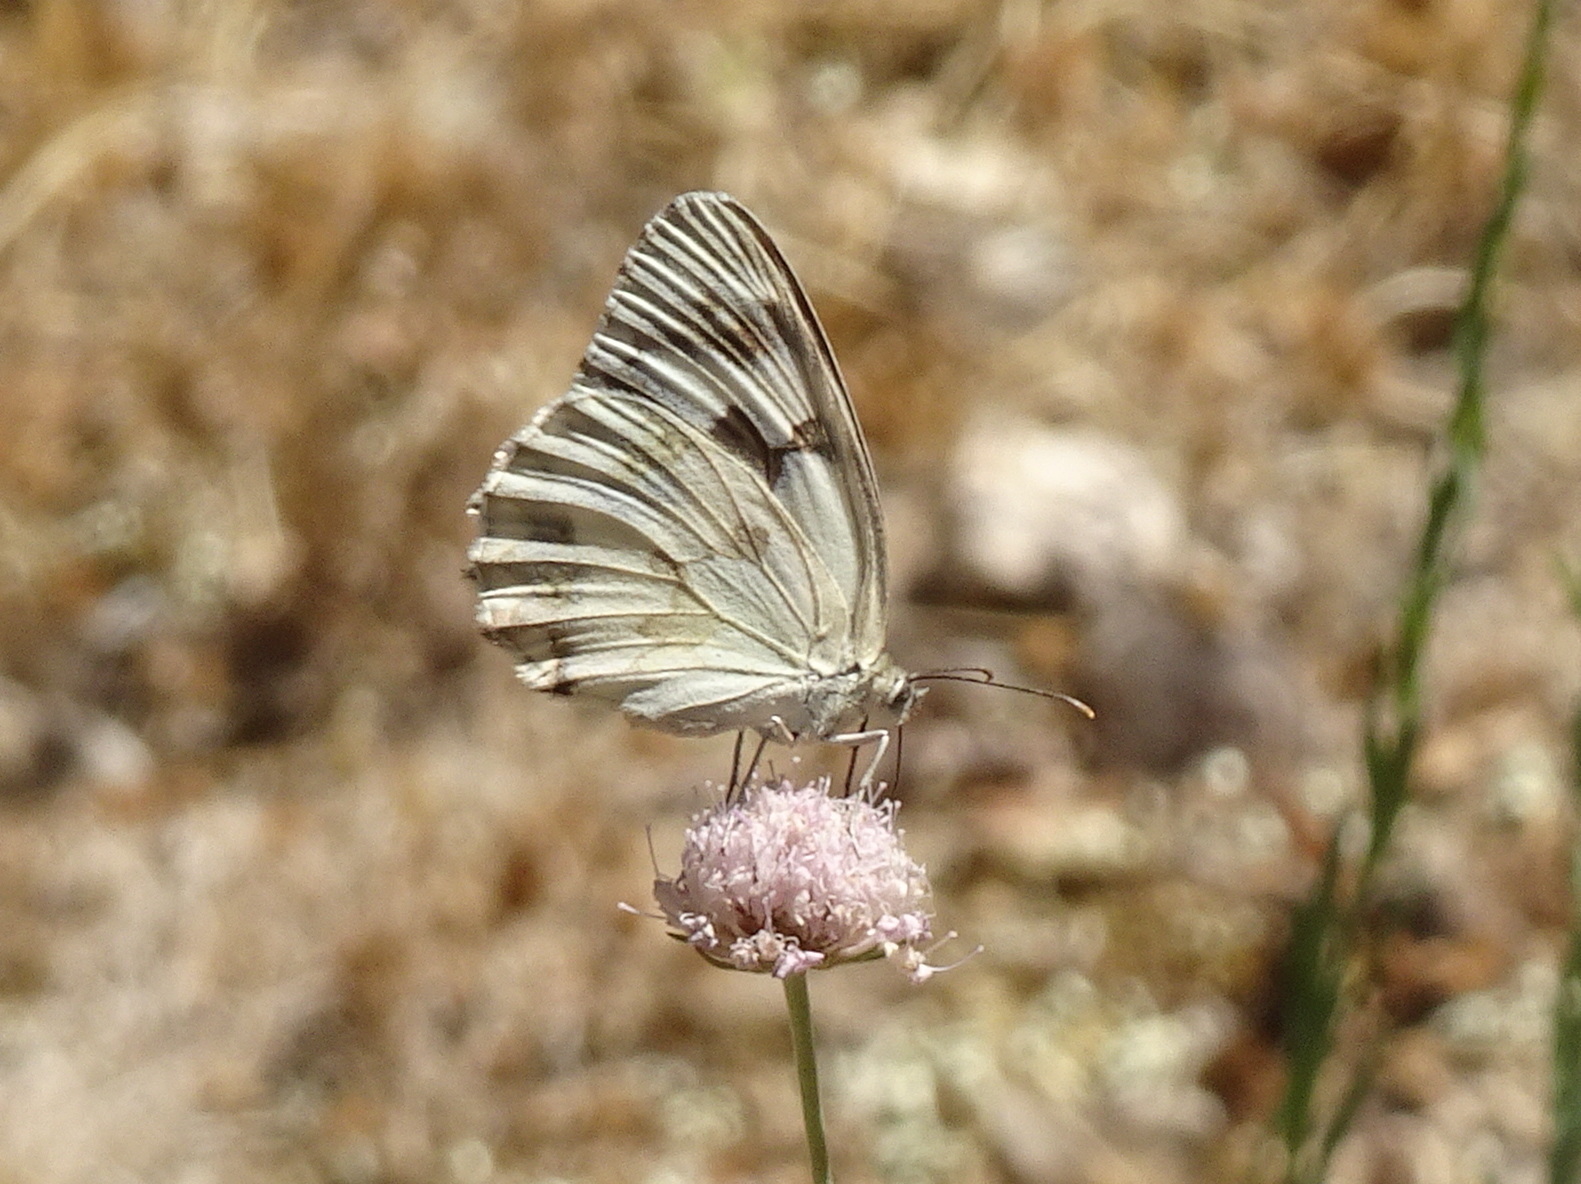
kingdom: Animalia
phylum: Arthropoda
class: Insecta
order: Lepidoptera
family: Nymphalidae
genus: Melanargia
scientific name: Melanargia lachesis
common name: Iberian marbled white
